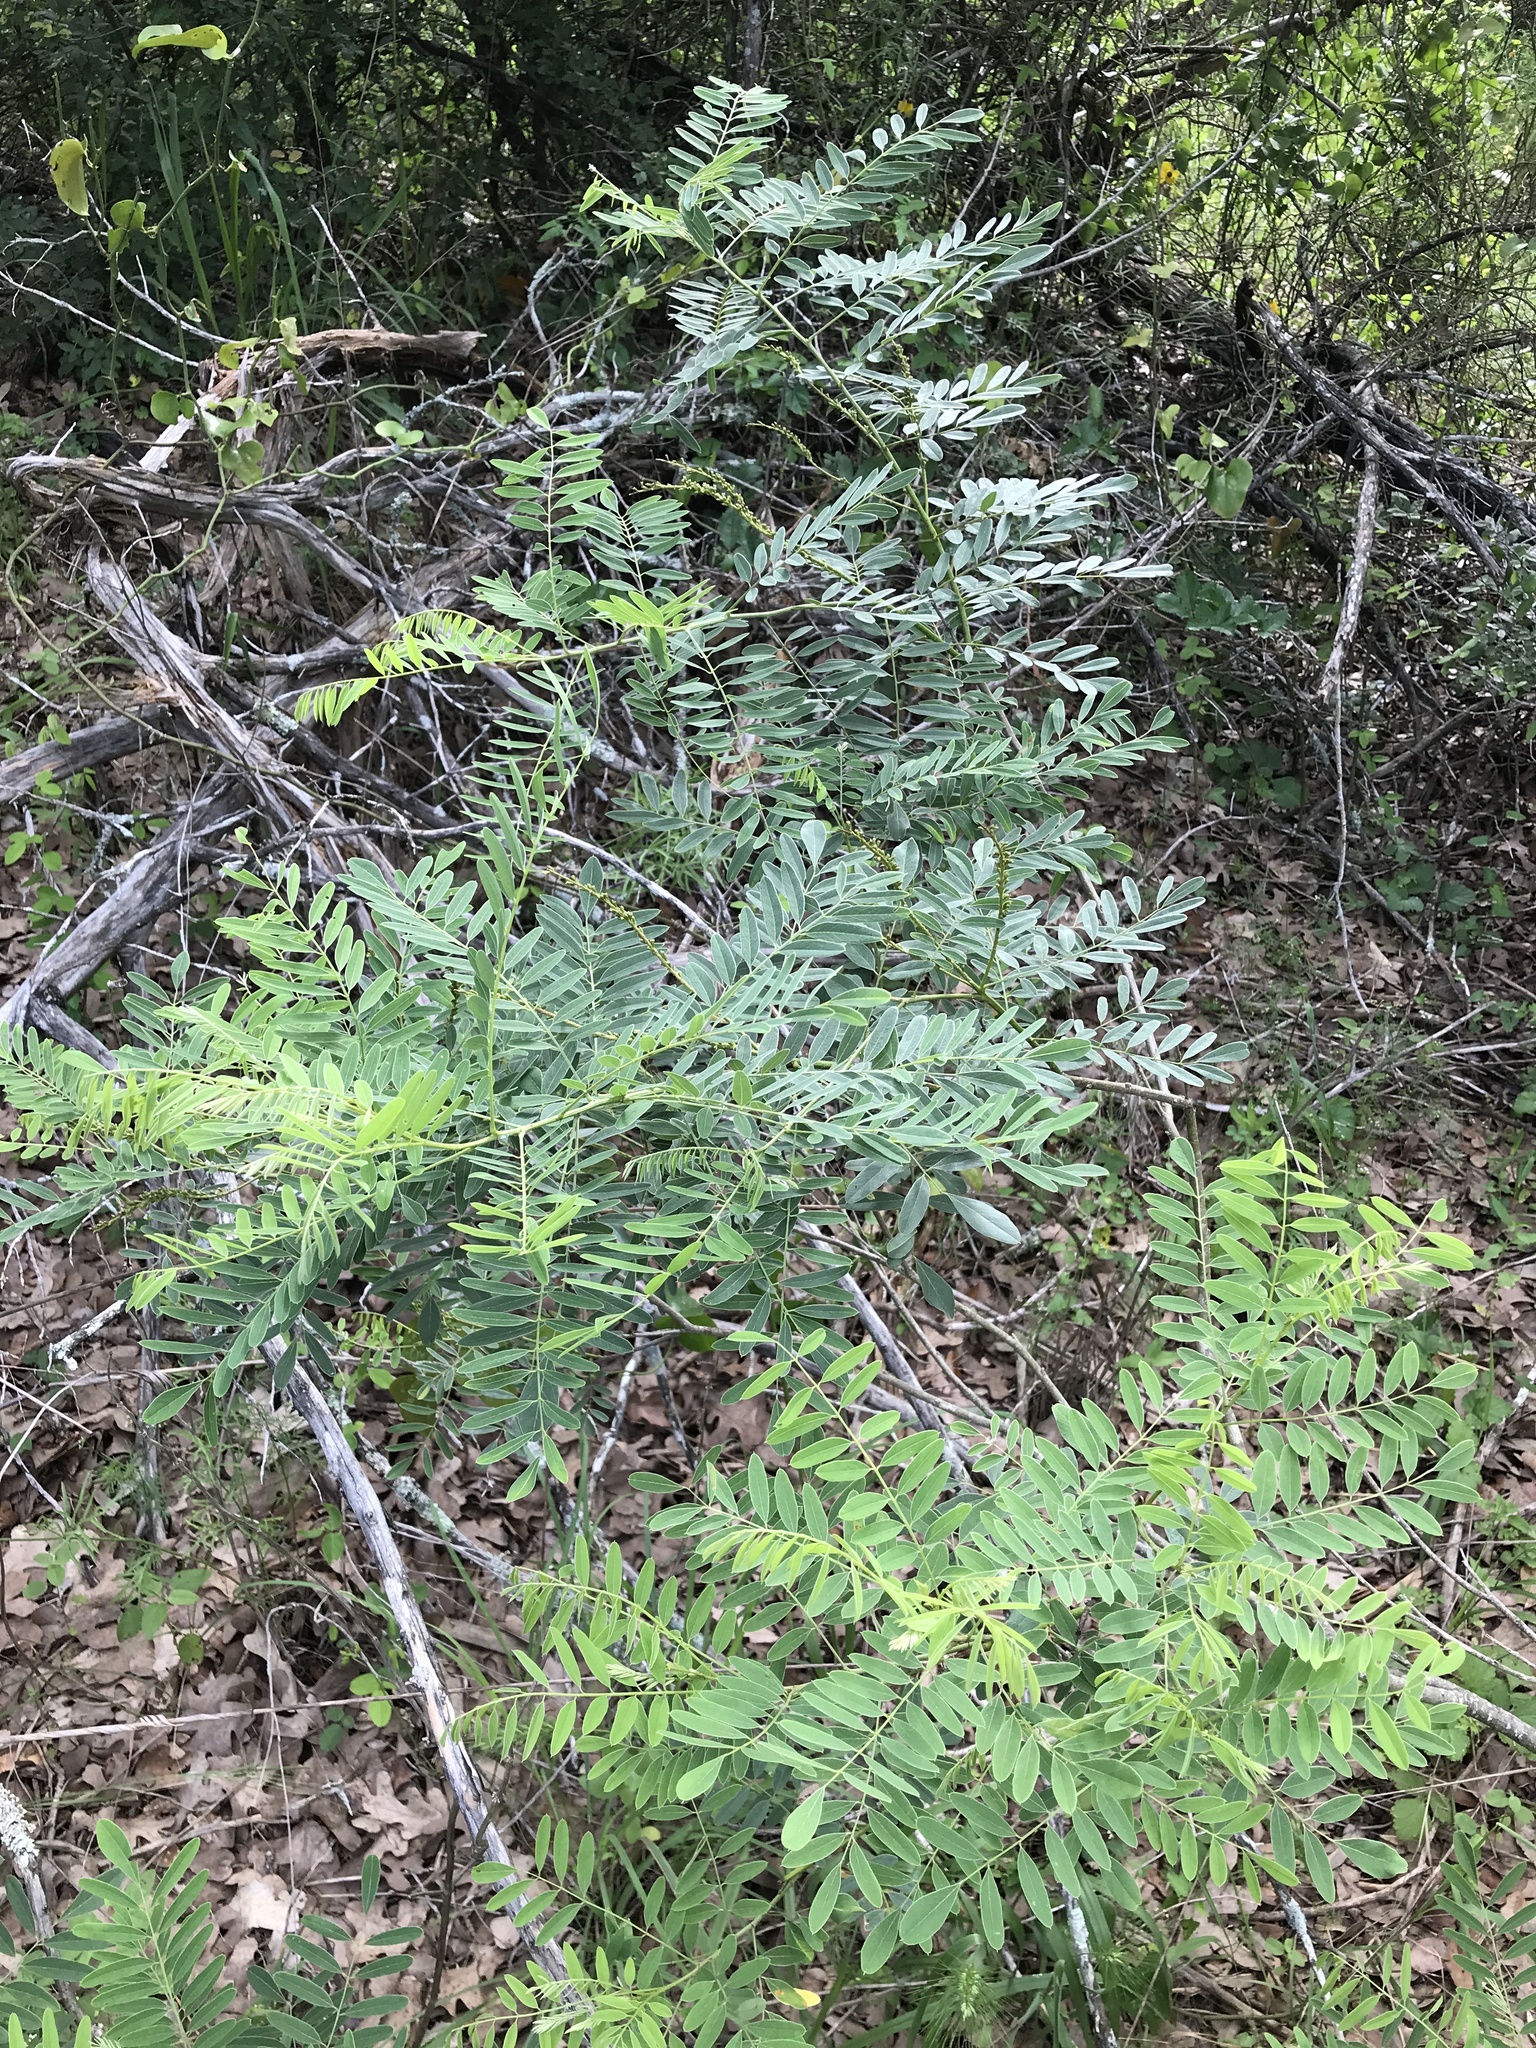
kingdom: Plantae
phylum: Tracheophyta
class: Magnoliopsida
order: Fabales
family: Fabaceae
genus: Amorpha
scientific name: Amorpha fruticosa
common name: False indigo
